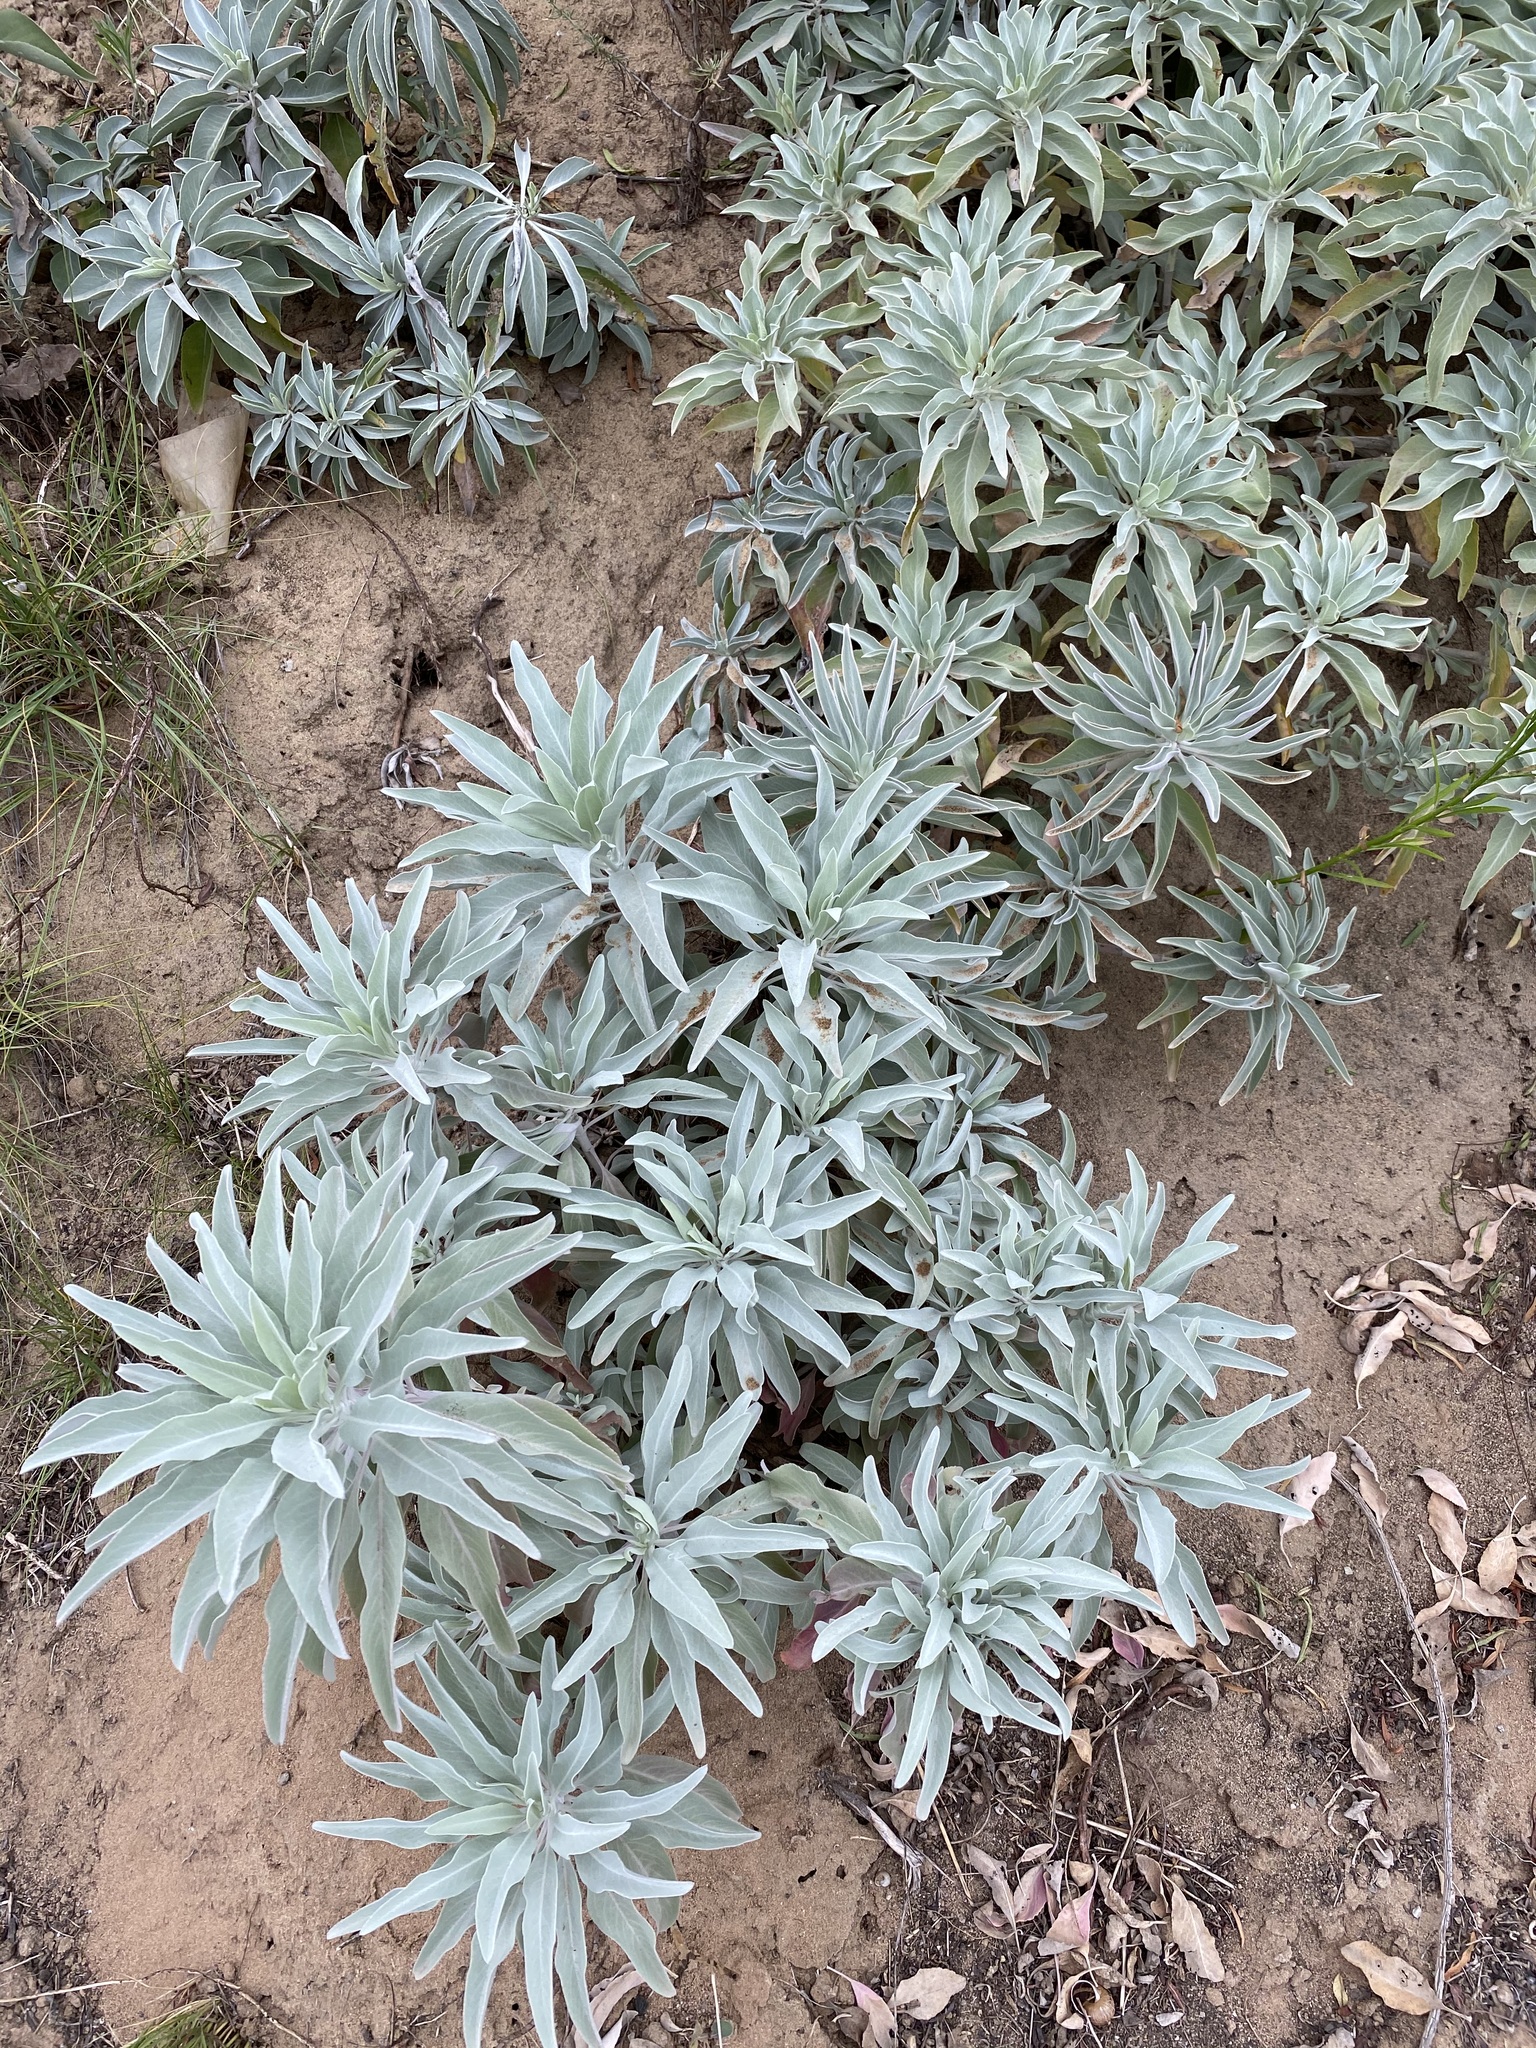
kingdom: Plantae
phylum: Tracheophyta
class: Magnoliopsida
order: Lamiales
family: Lamiaceae
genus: Salvia
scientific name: Salvia apiana
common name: White sage
